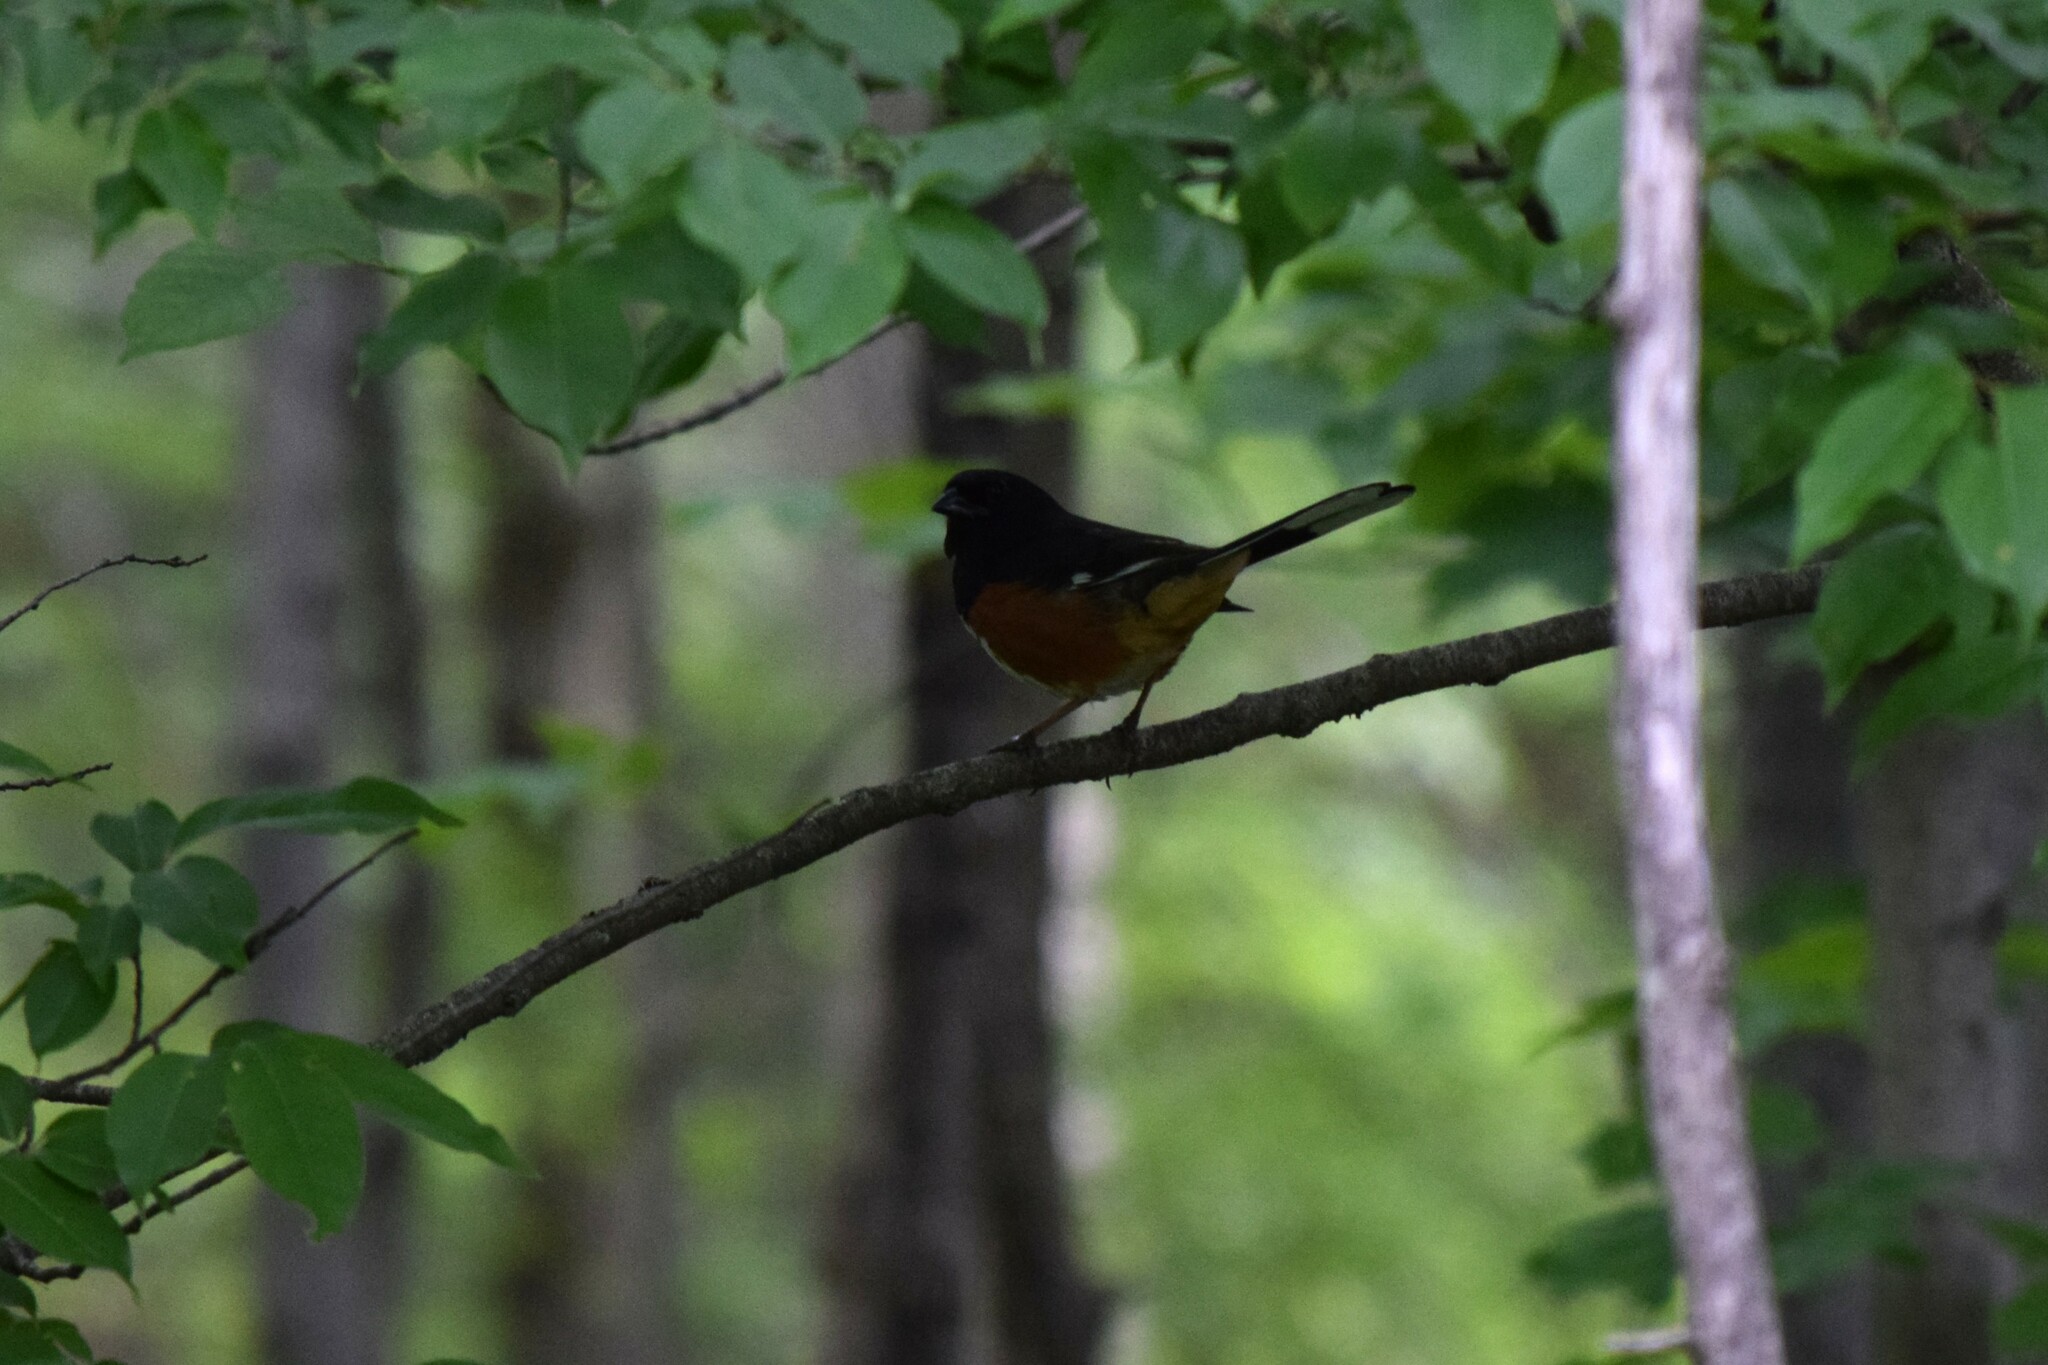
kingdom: Animalia
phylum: Chordata
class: Aves
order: Passeriformes
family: Passerellidae
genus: Pipilo
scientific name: Pipilo erythrophthalmus
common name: Eastern towhee
